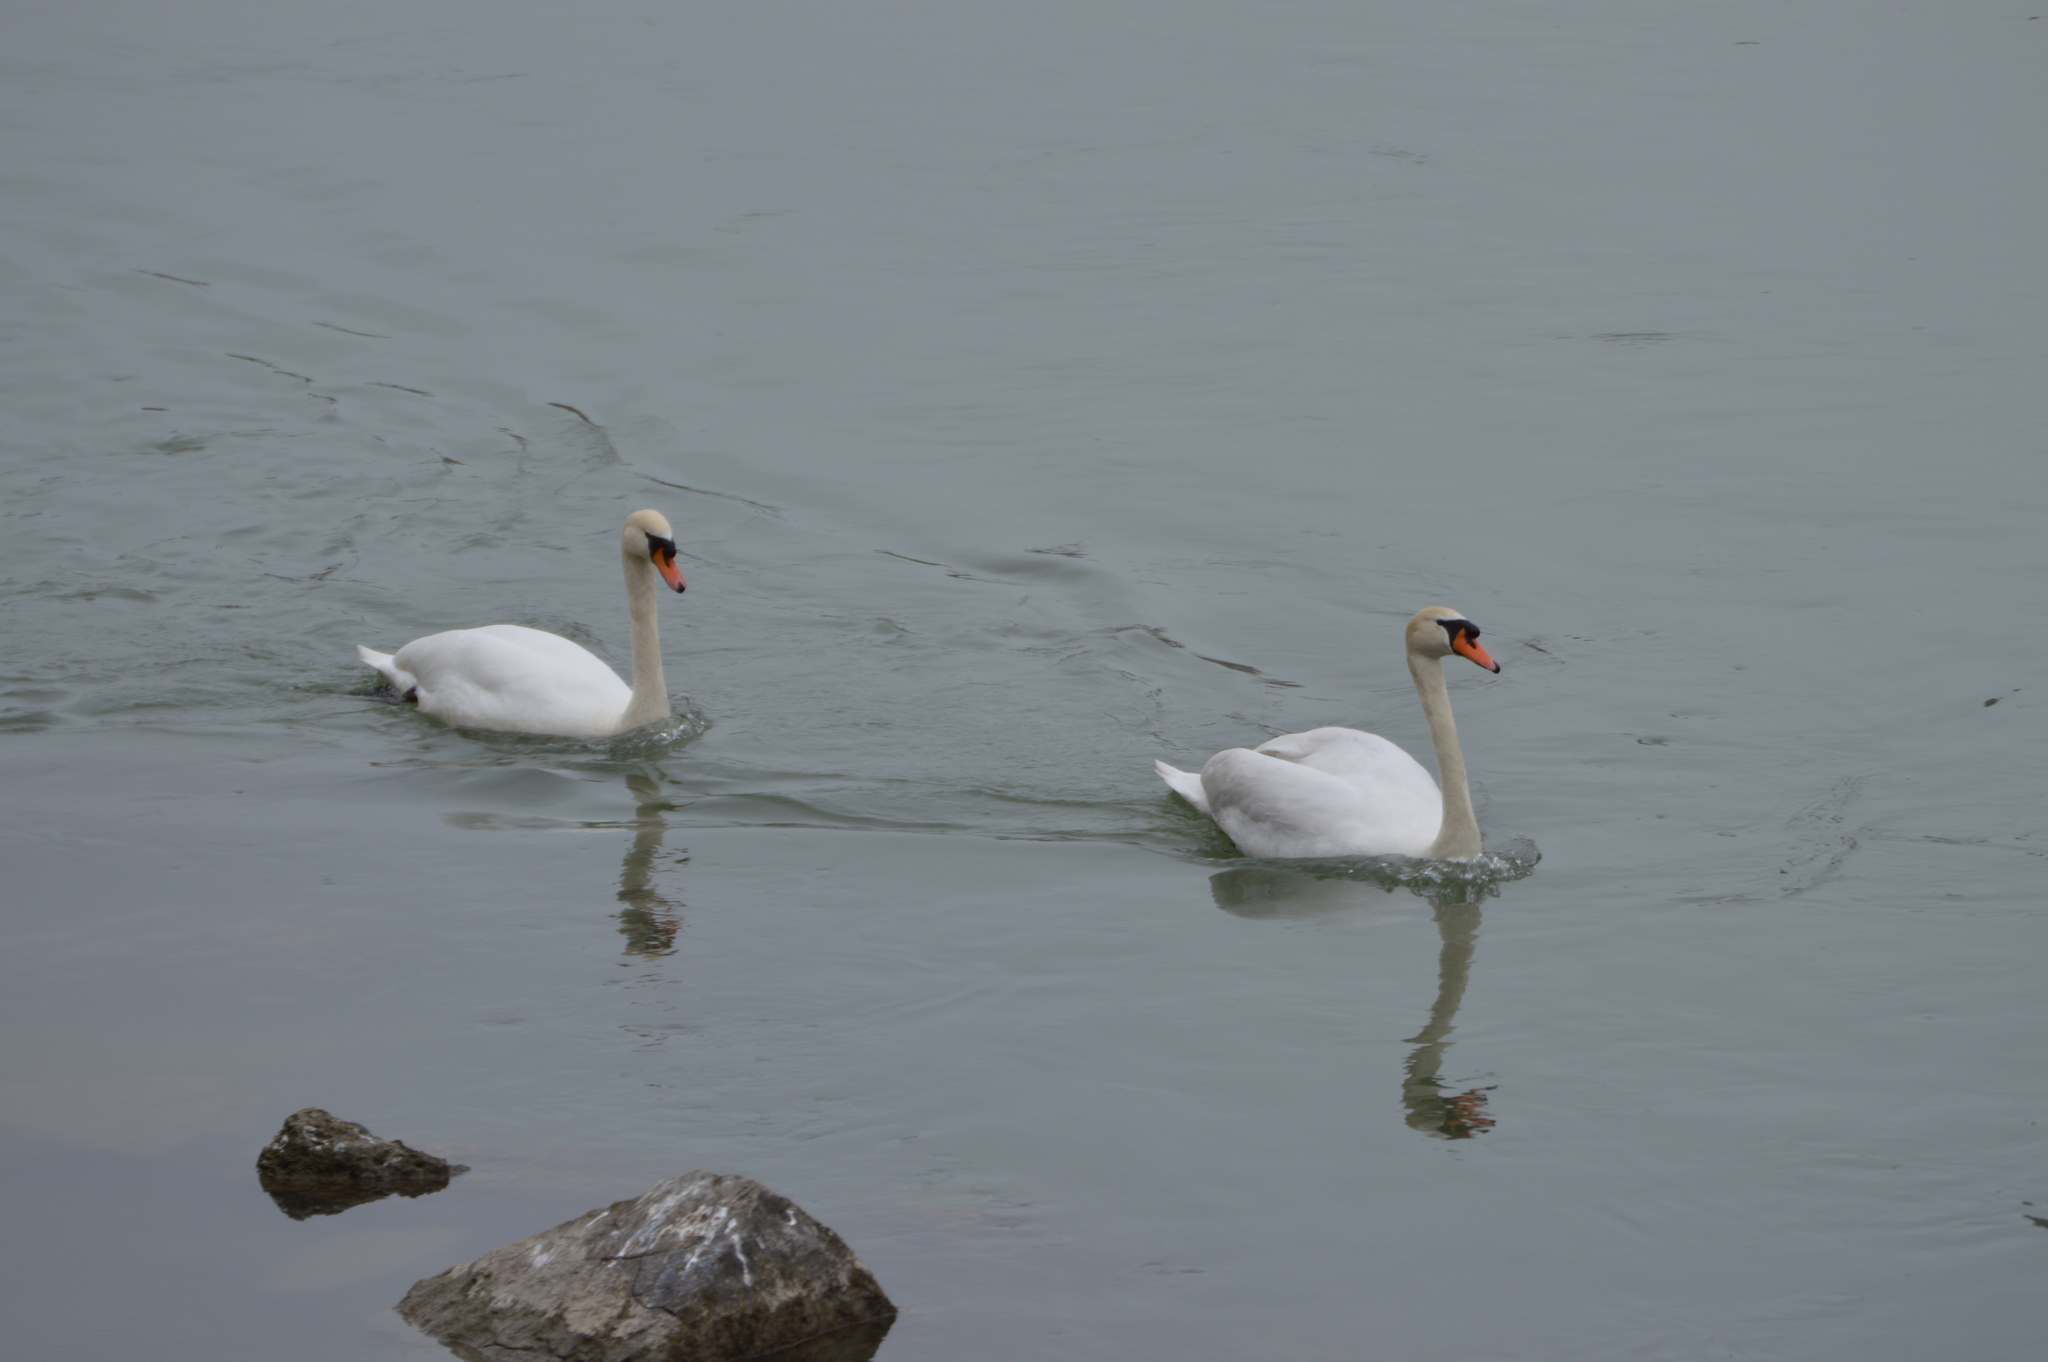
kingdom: Animalia
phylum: Chordata
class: Aves
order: Anseriformes
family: Anatidae
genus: Cygnus
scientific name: Cygnus olor
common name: Mute swan
